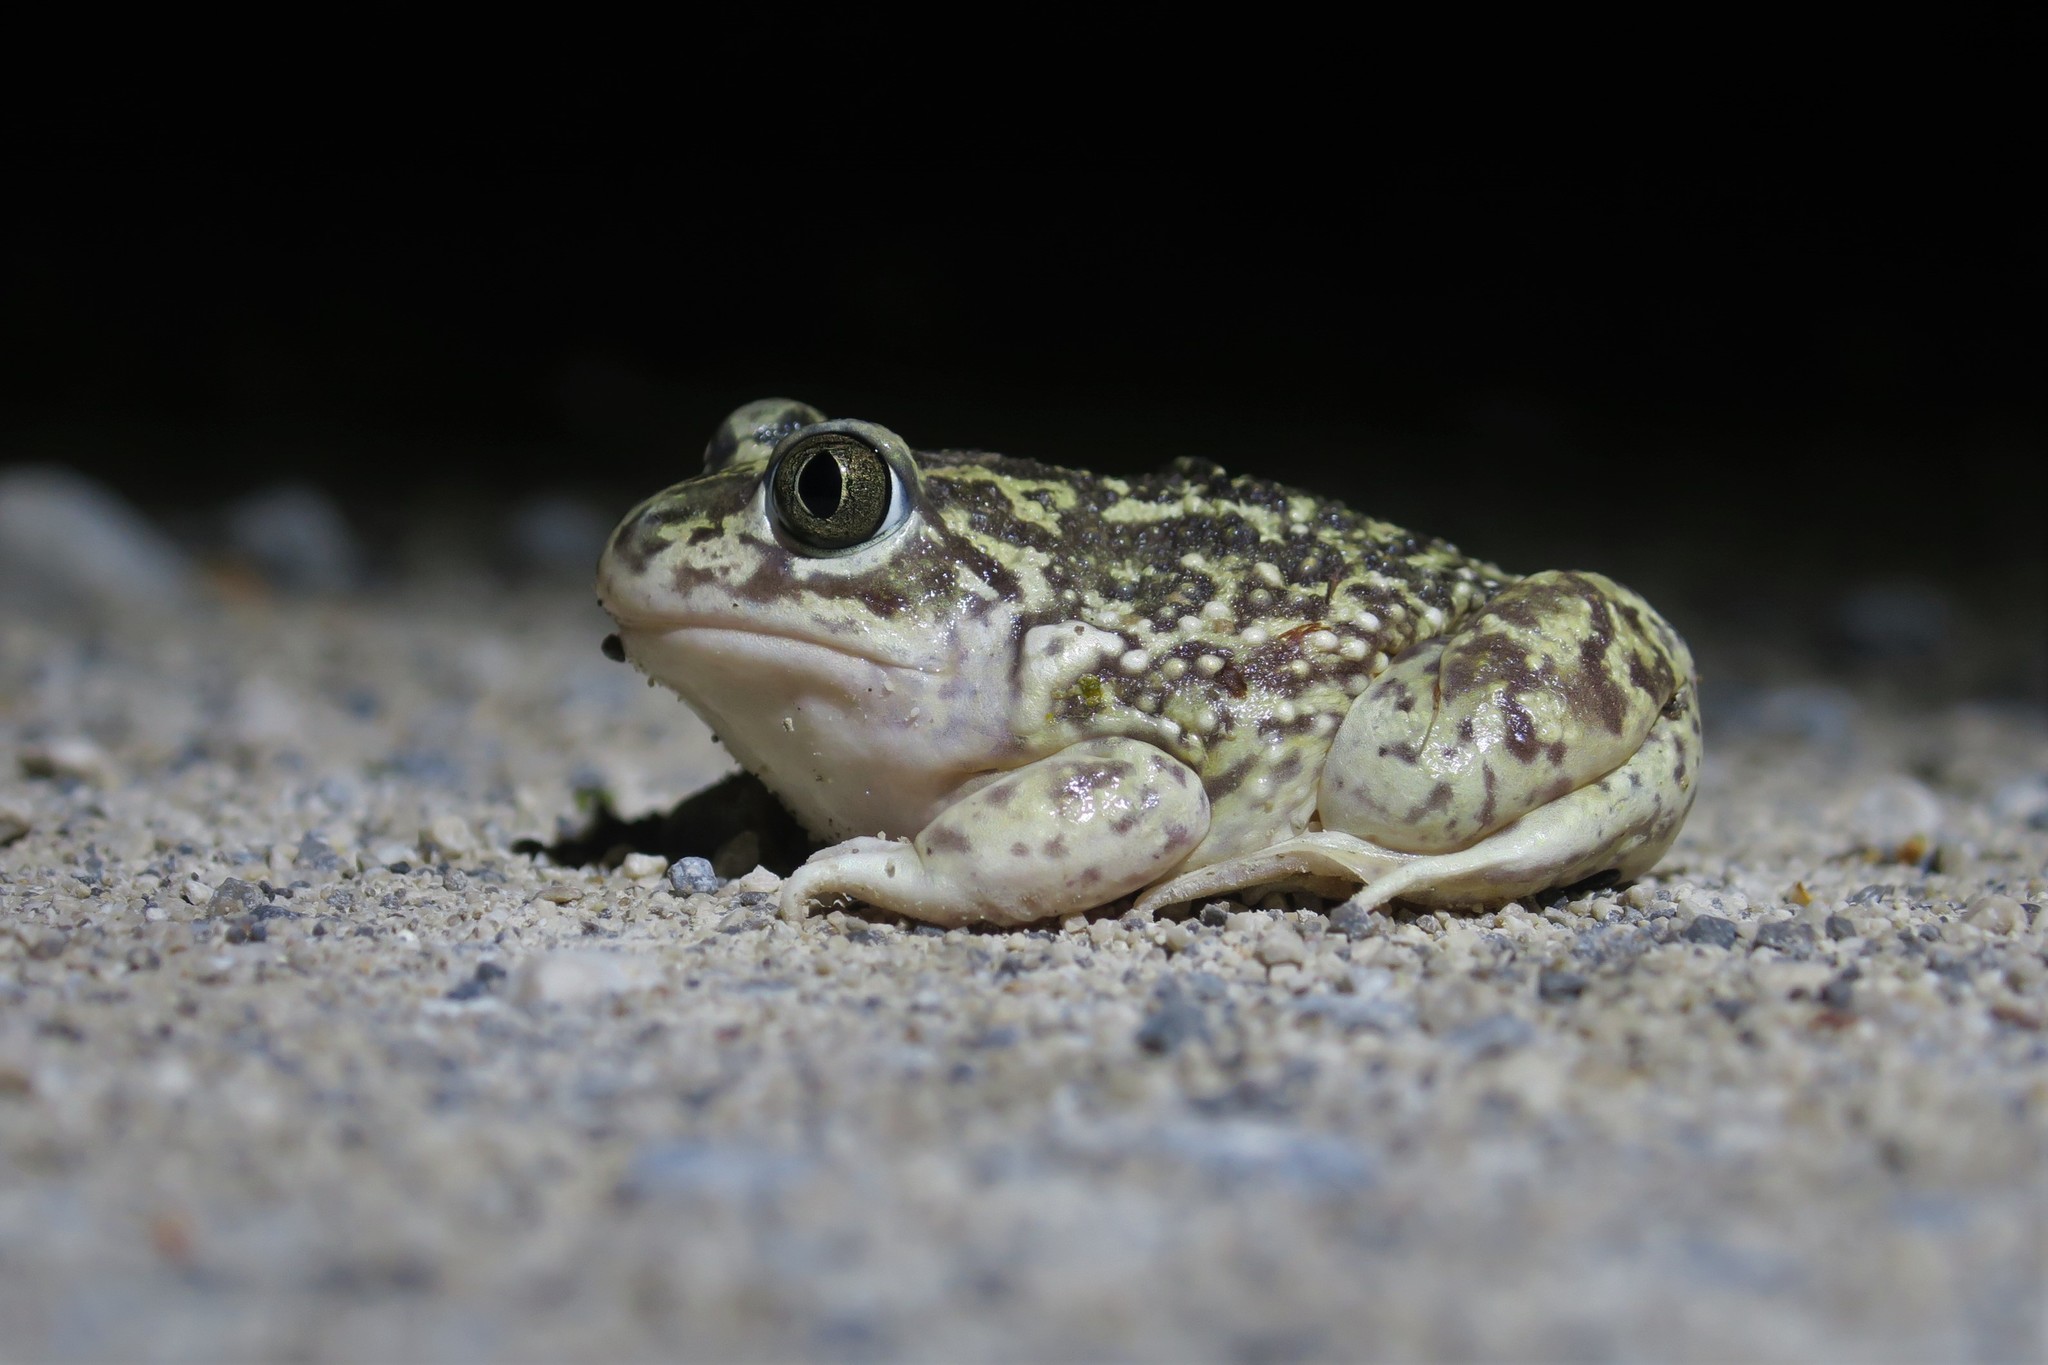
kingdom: Animalia
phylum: Chordata
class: Amphibia
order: Anura
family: Pelobatidae
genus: Pelobates
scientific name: Pelobates cultripes
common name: Western spadefoot
